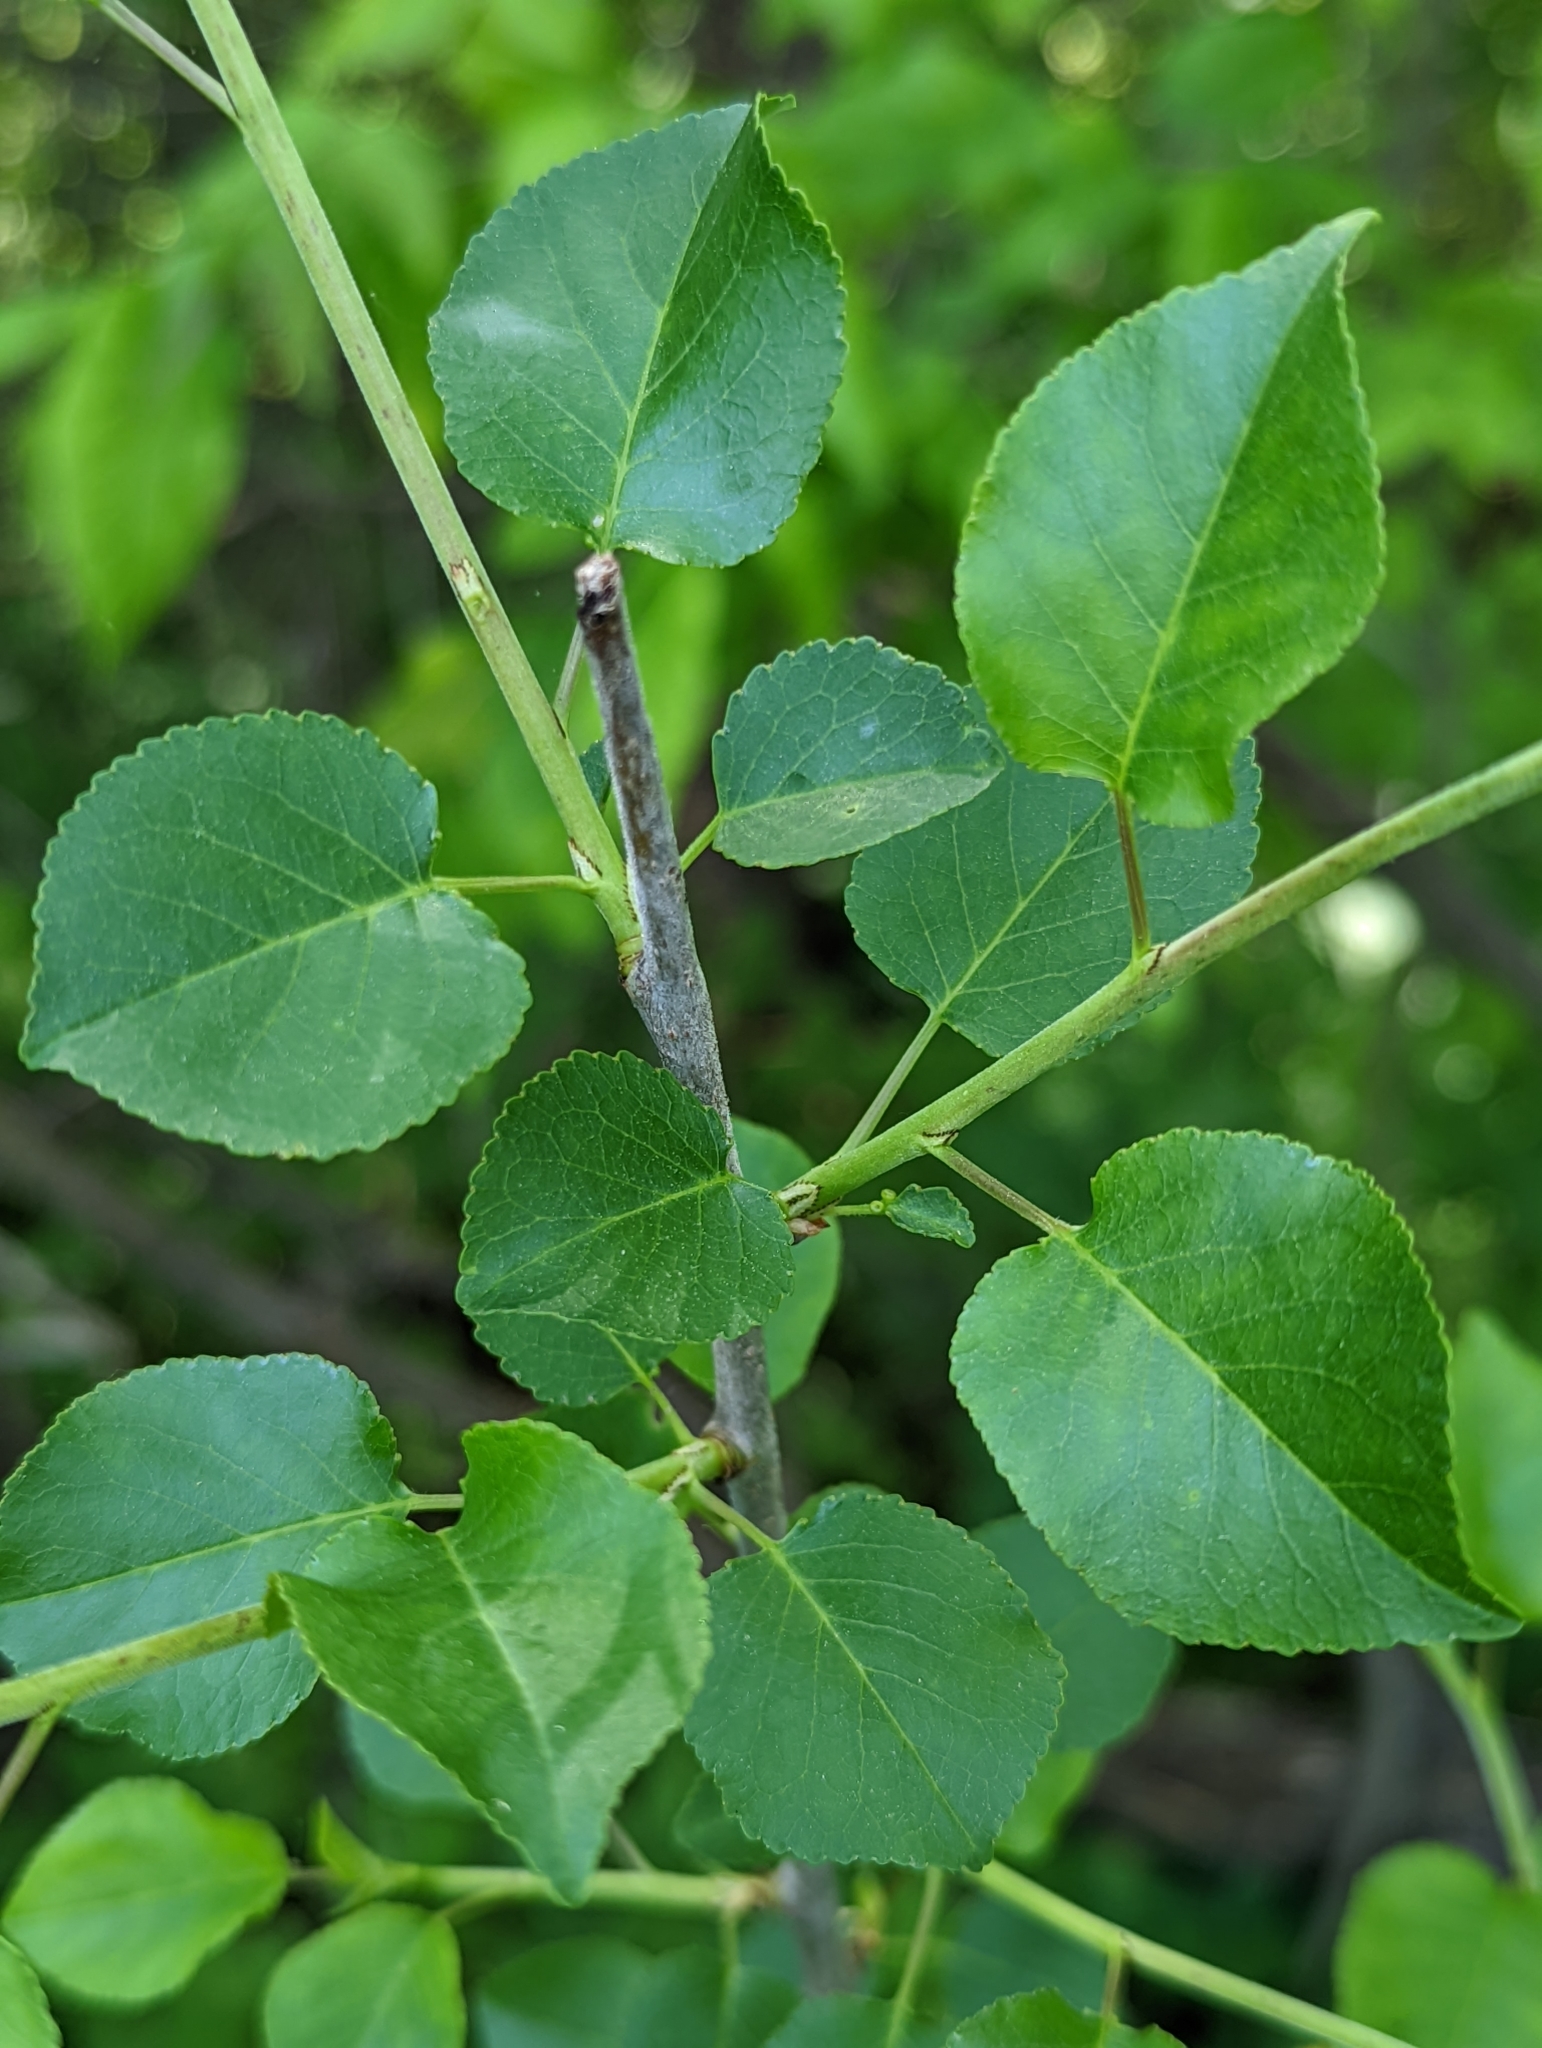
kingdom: Plantae
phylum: Tracheophyta
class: Magnoliopsida
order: Rosales
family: Rosaceae
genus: Prunus
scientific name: Prunus mahaleb
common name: Mahaleb cherry
